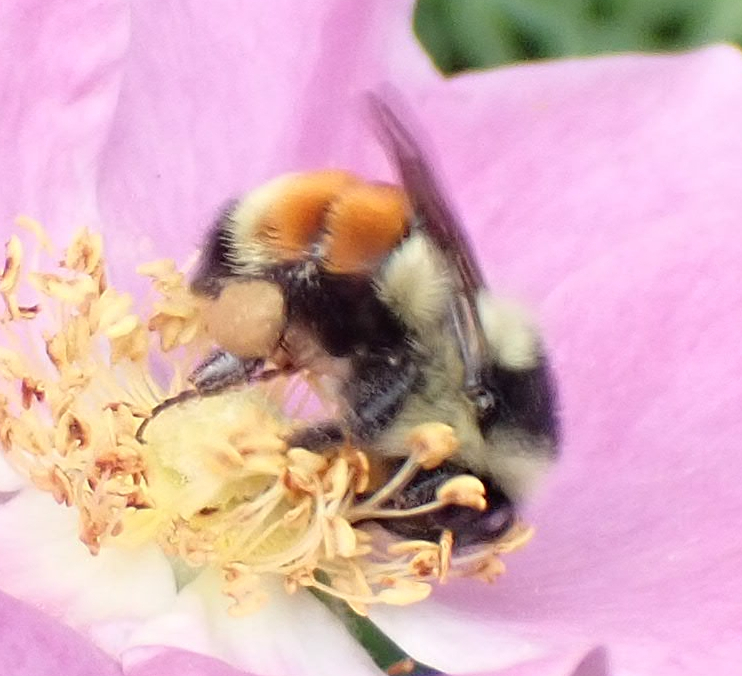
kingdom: Animalia
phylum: Arthropoda
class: Insecta
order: Hymenoptera
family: Apidae
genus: Bombus
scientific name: Bombus ternarius
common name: Tri-colored bumble bee
